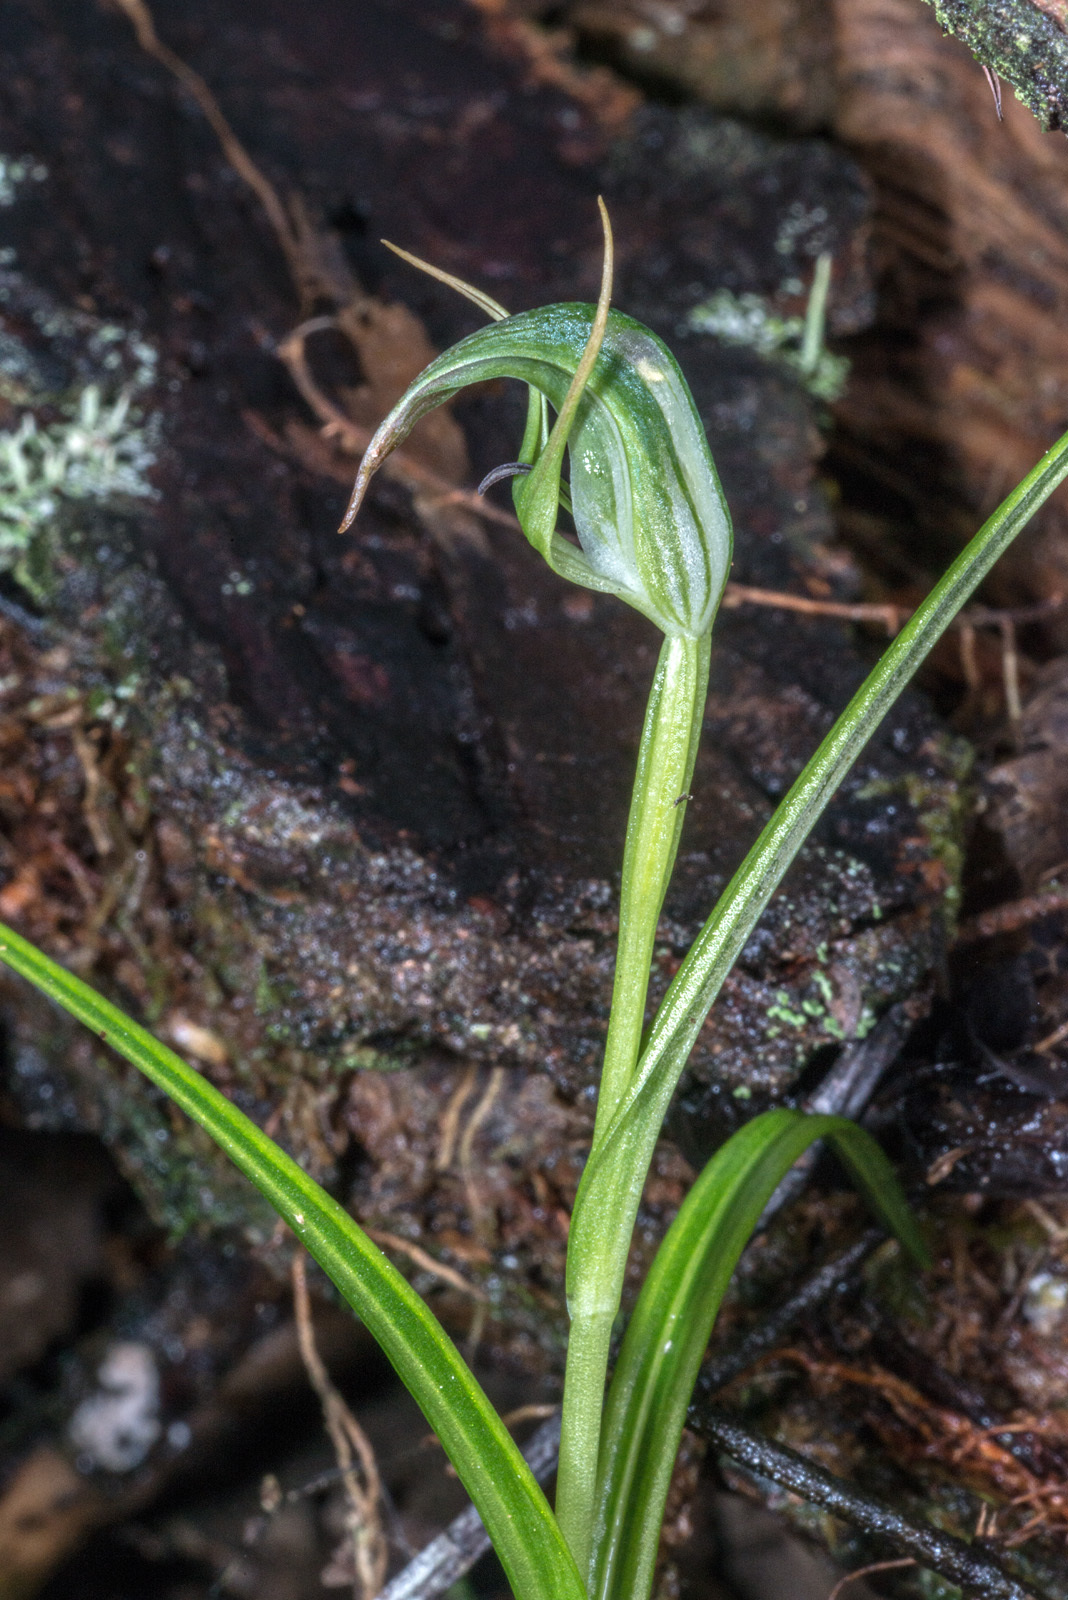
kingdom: Plantae
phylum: Tracheophyta
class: Liliopsida
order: Asparagales
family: Orchidaceae
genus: Pterostylis
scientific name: Pterostylis graminea
